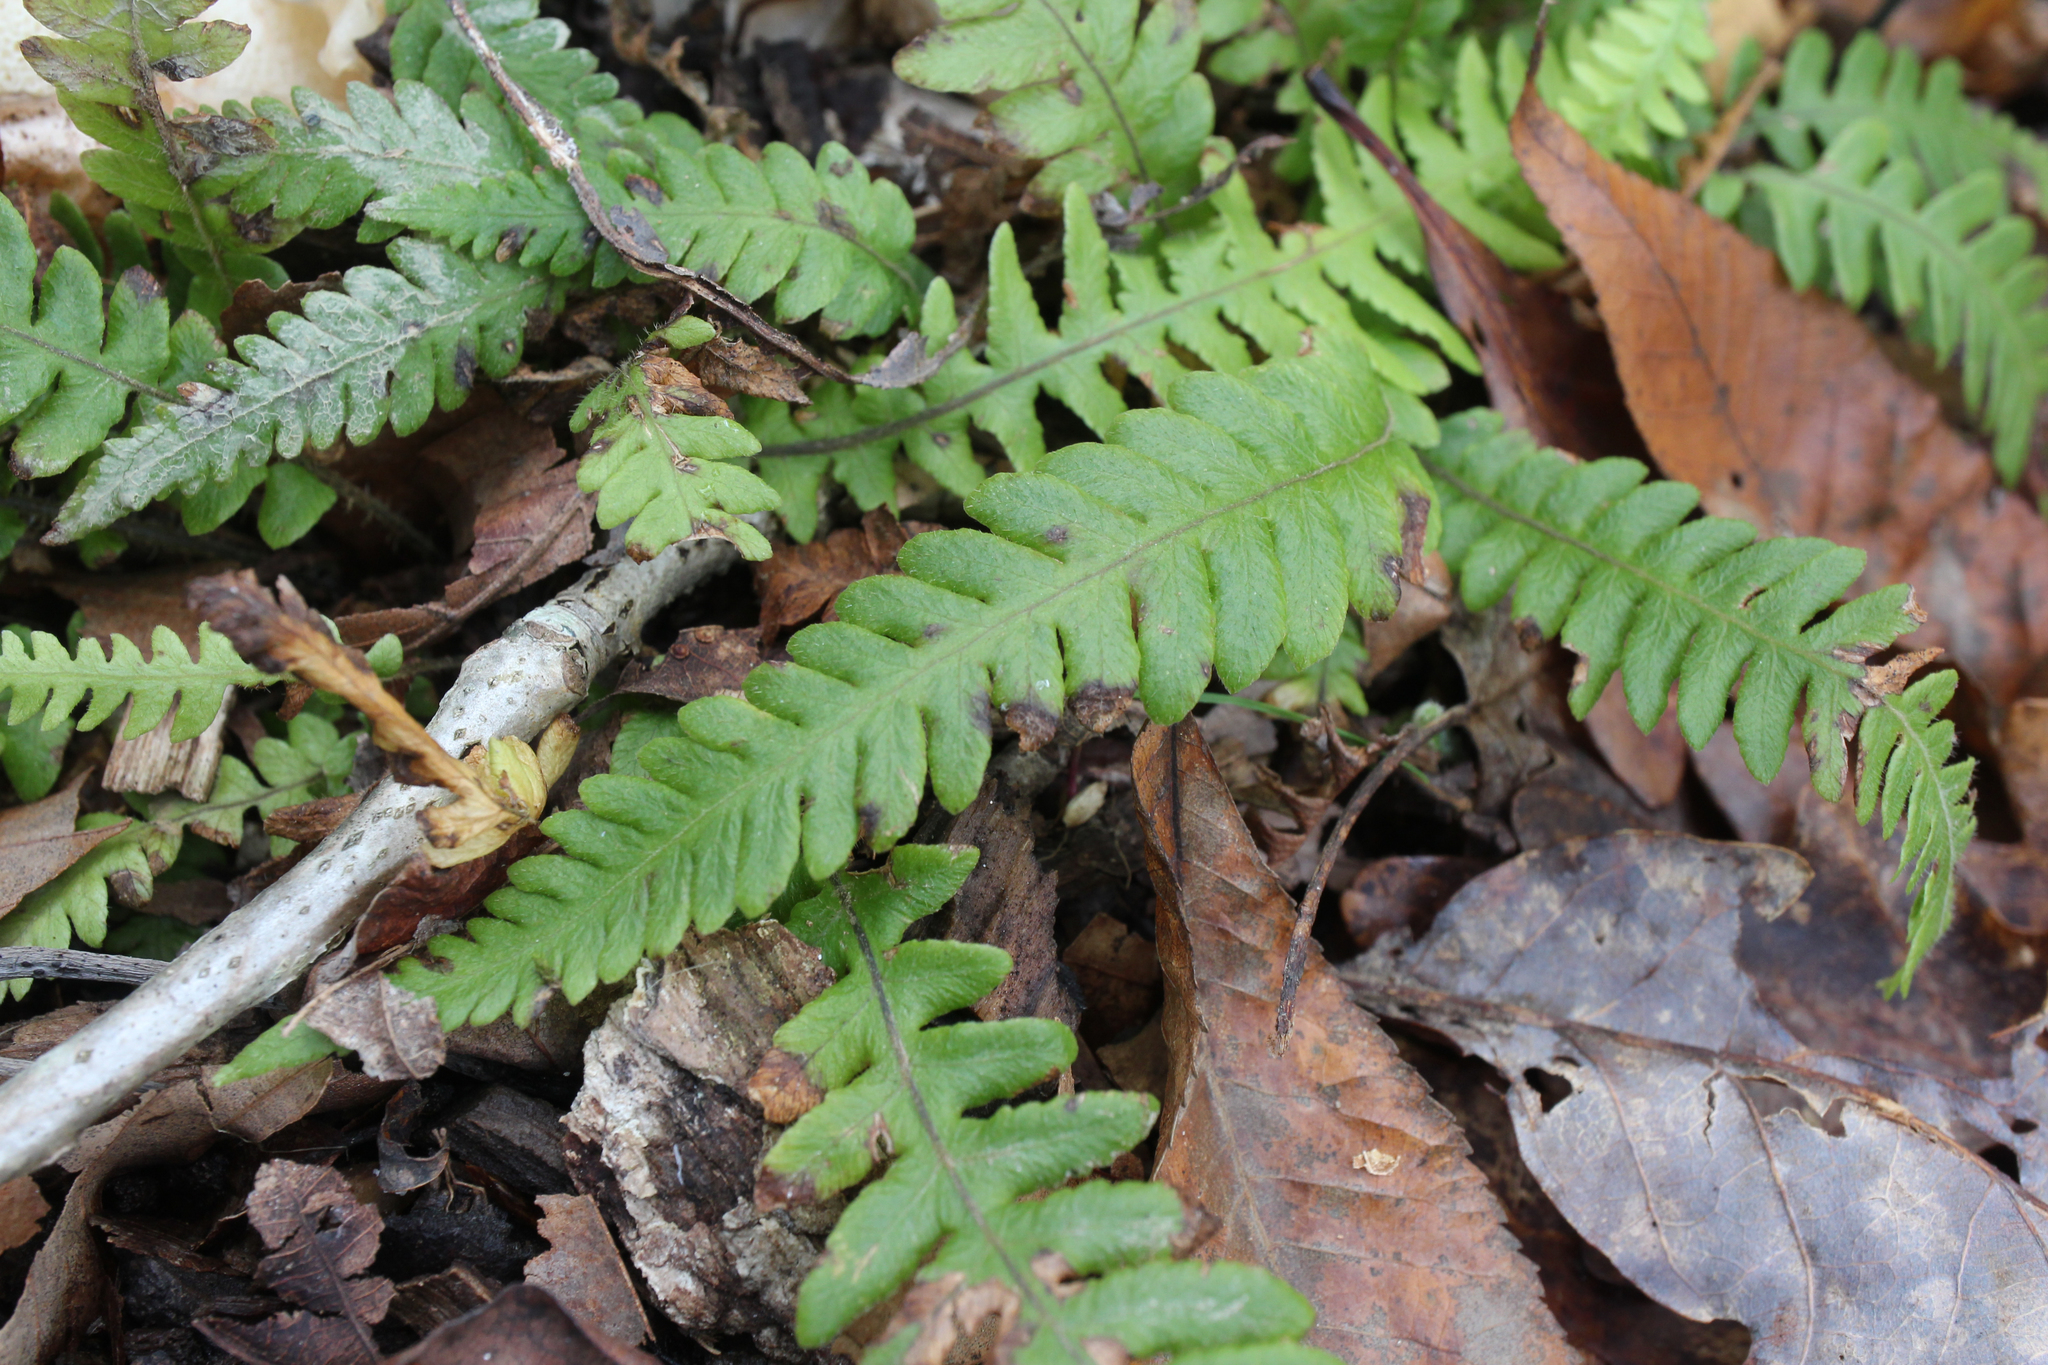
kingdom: Plantae
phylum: Tracheophyta
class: Polypodiopsida
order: Polypodiales
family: Thelypteridaceae
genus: Phegopteris
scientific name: Phegopteris decursive-pinnata
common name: Japanese beech fern
